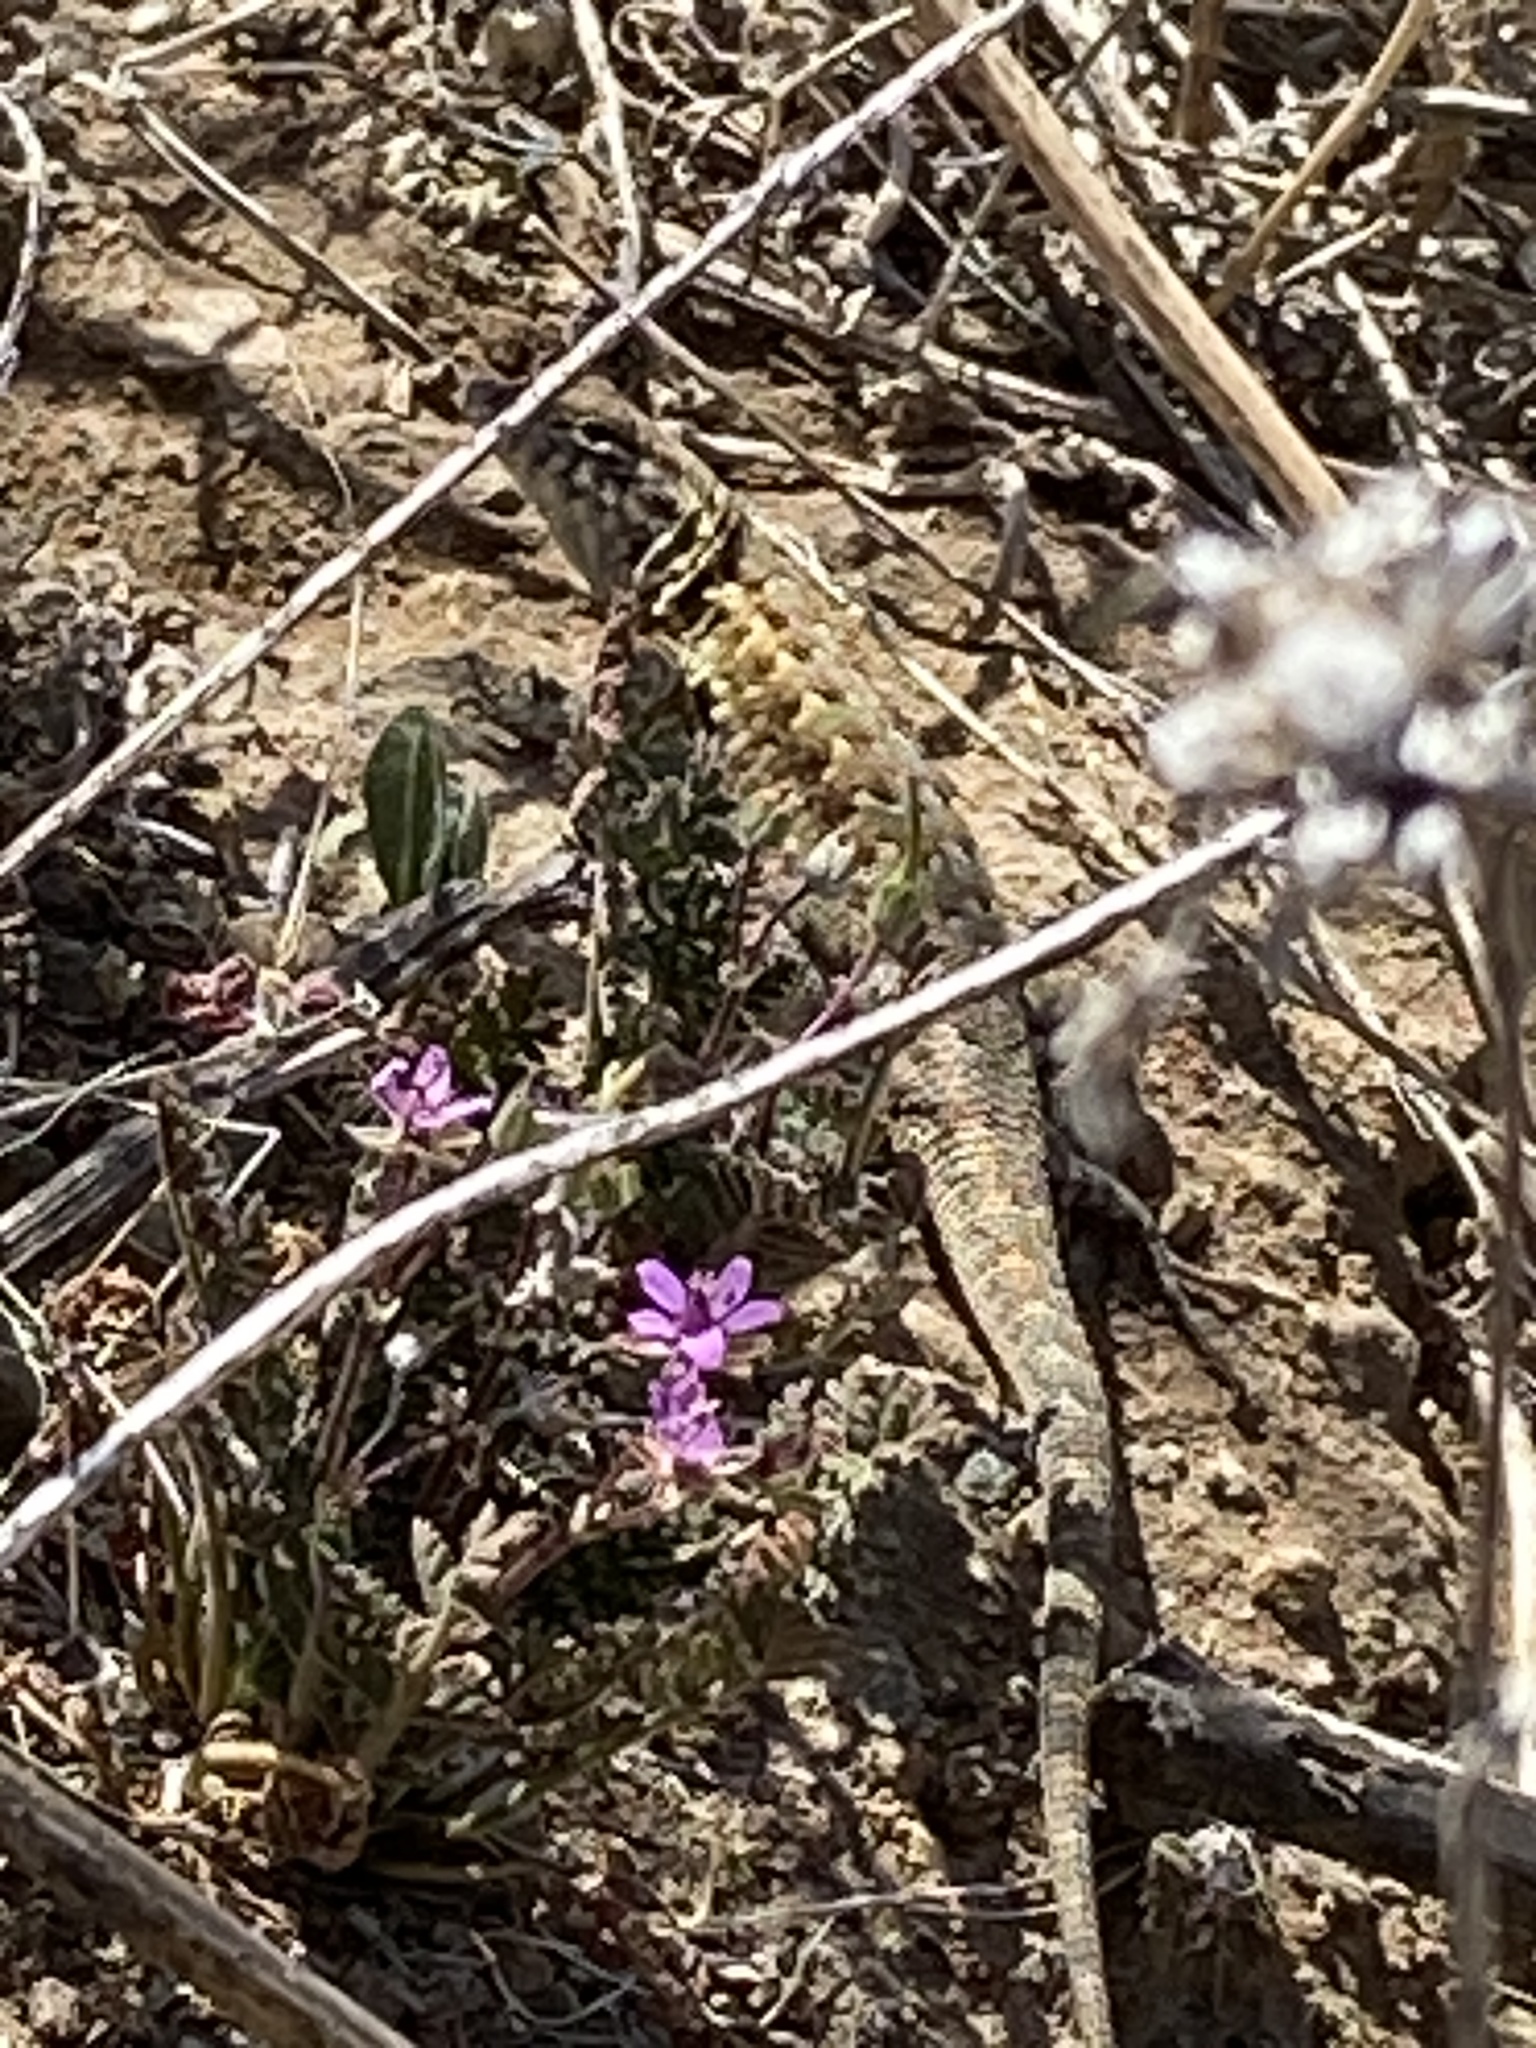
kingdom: Animalia
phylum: Chordata
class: Squamata
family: Phrynosomatidae
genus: Uta
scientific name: Uta stansburiana
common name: Side-blotched lizard
